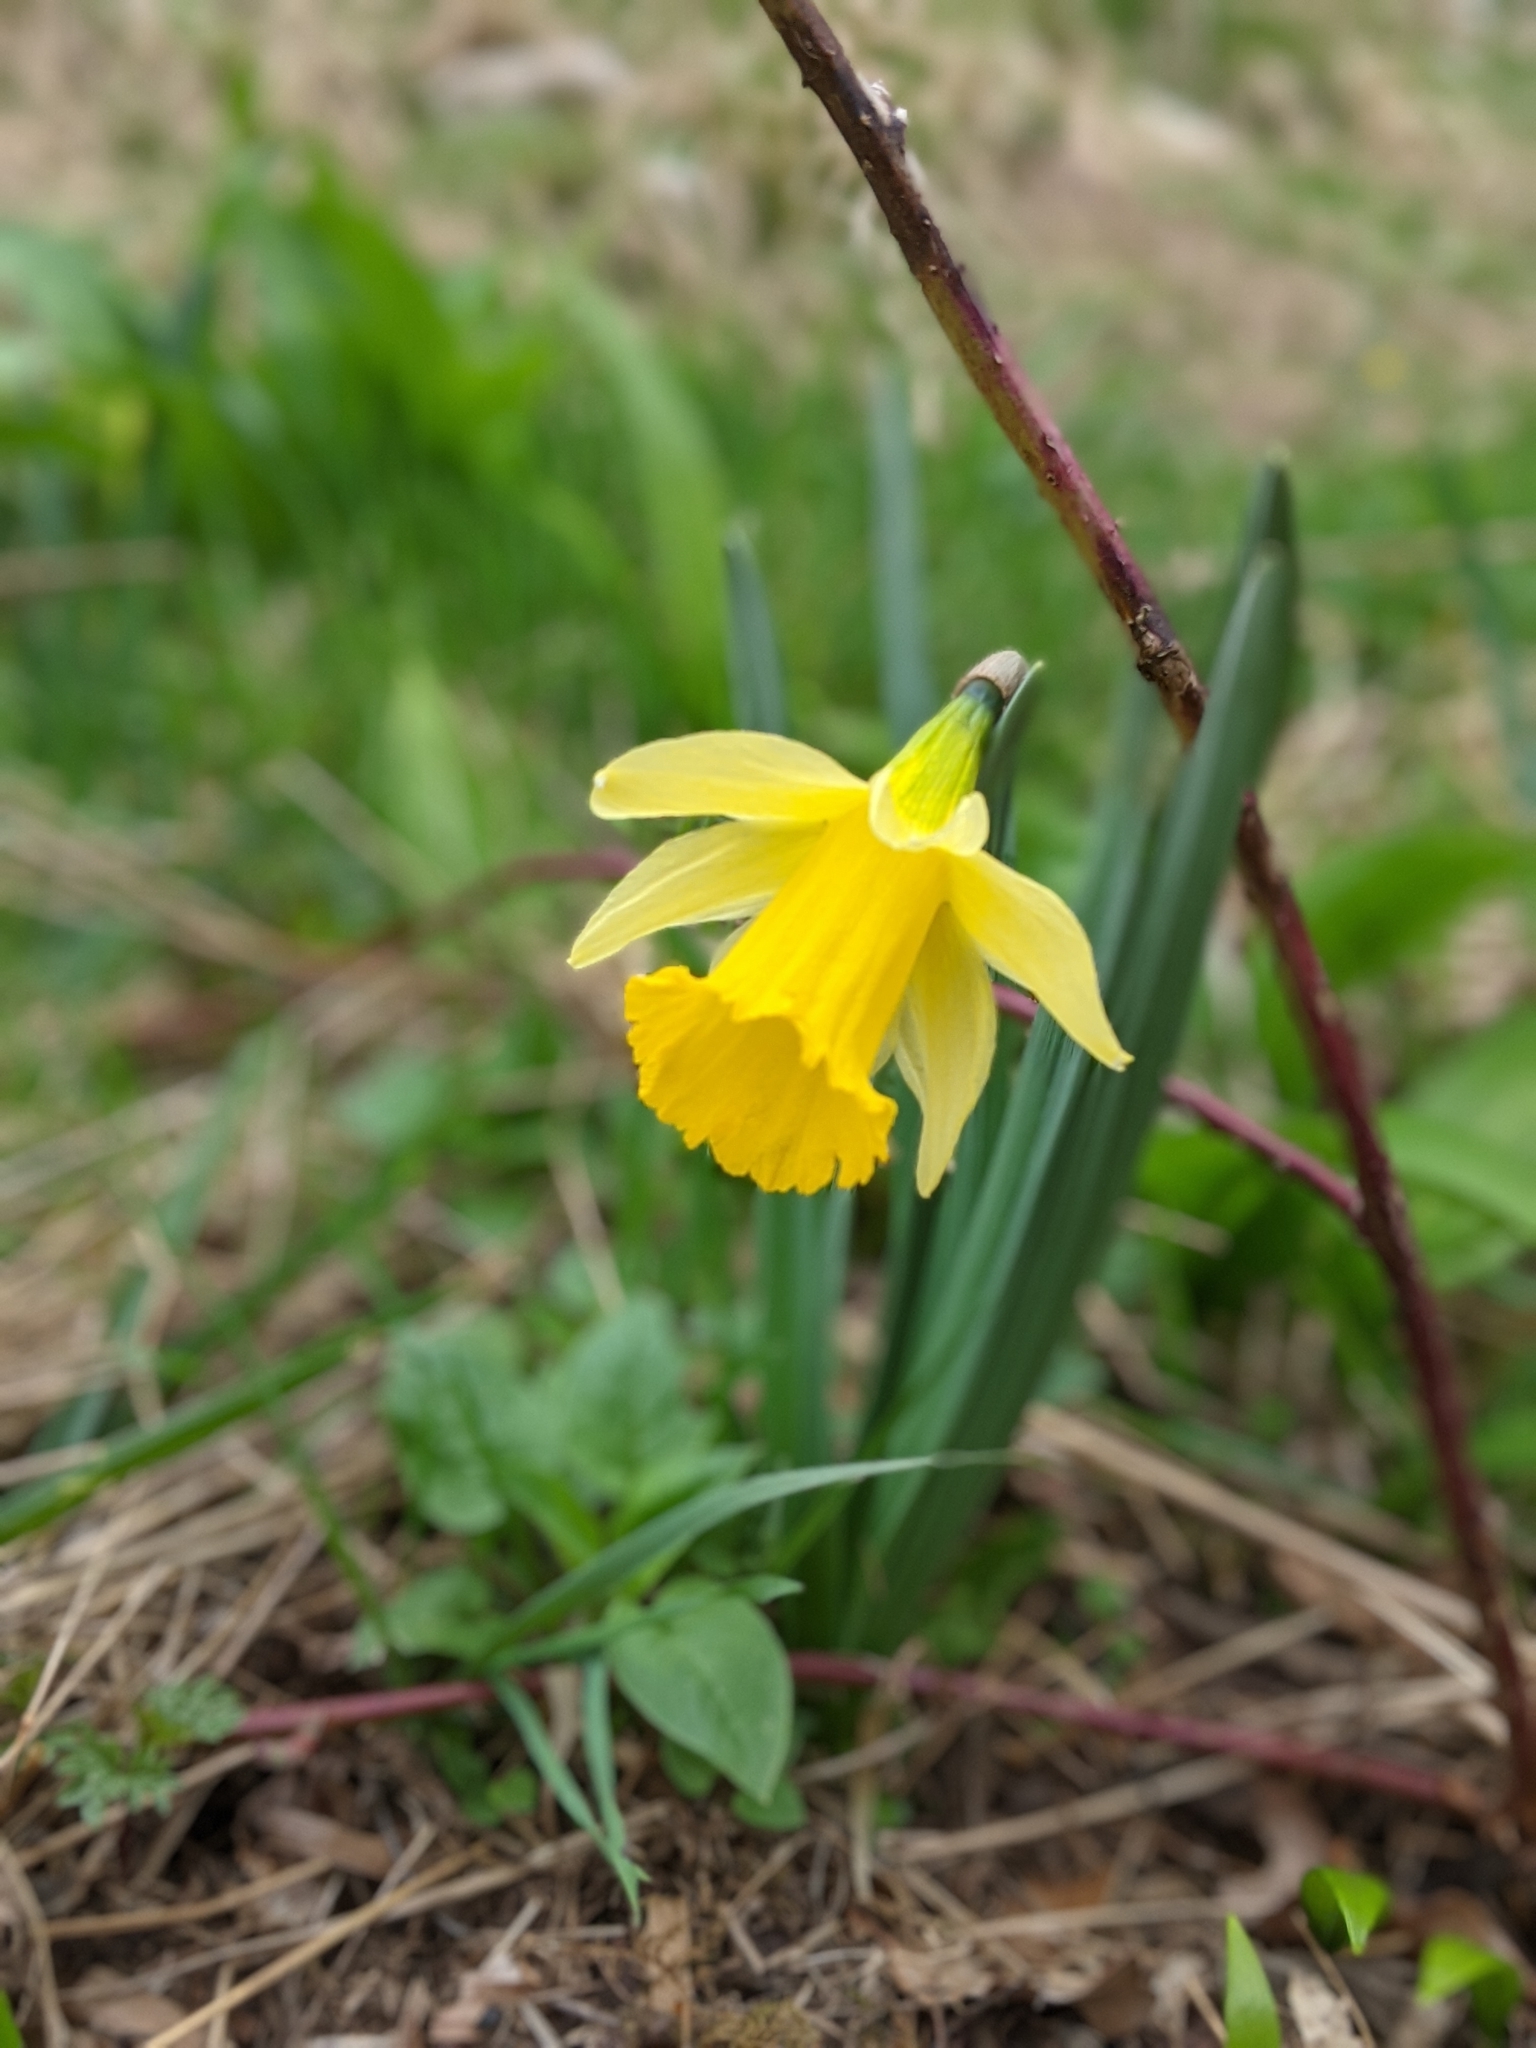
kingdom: Plantae
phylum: Tracheophyta
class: Liliopsida
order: Asparagales
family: Amaryllidaceae
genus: Narcissus
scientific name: Narcissus pseudonarcissus
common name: Daffodil
